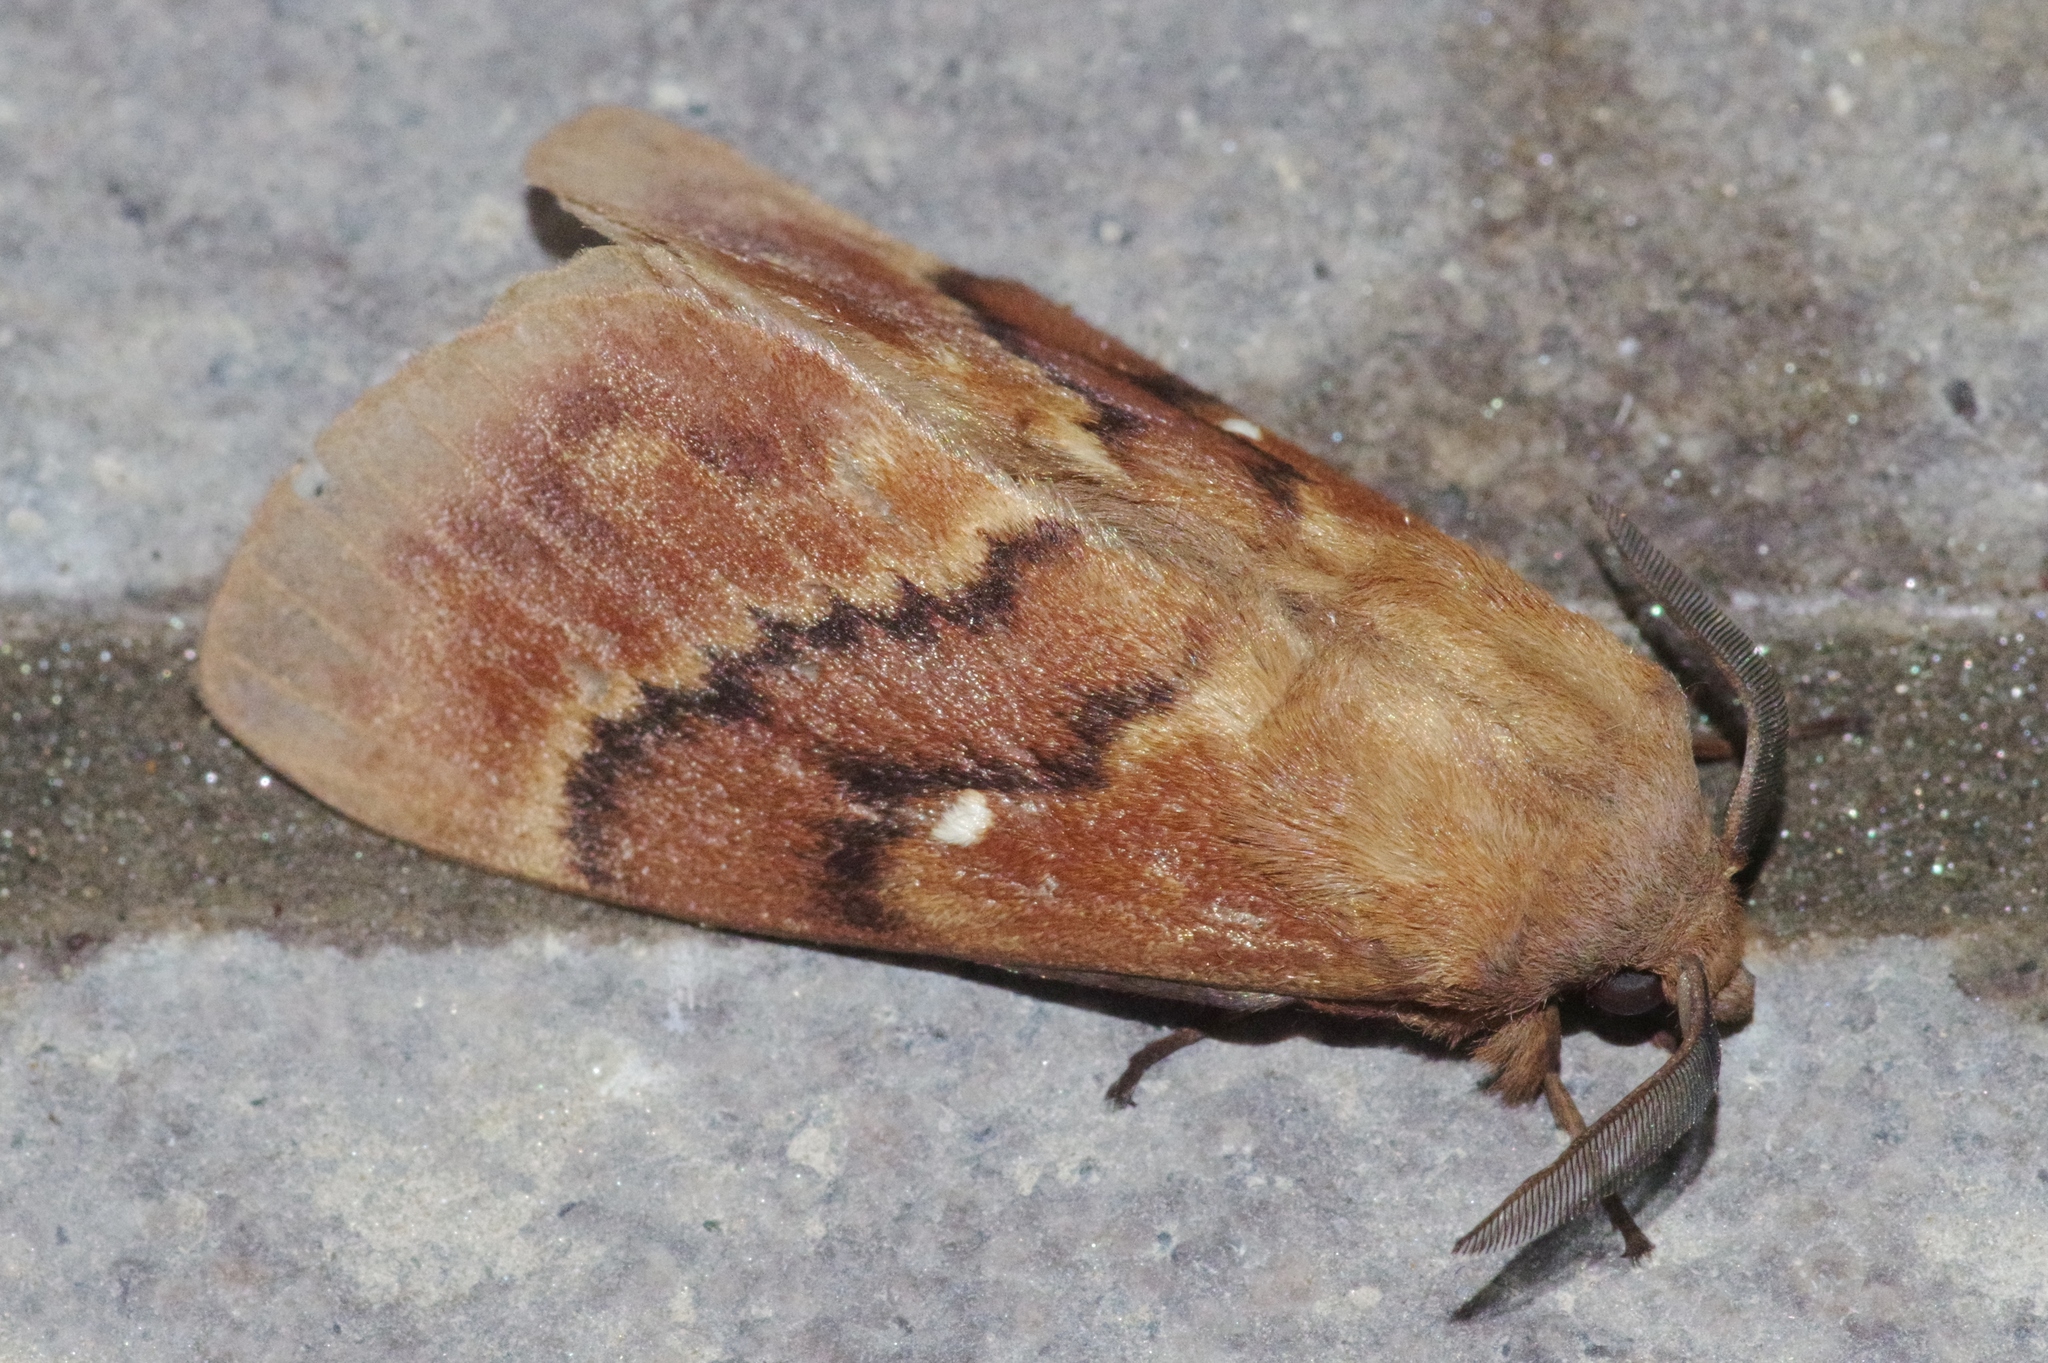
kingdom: Animalia
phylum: Arthropoda
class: Insecta
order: Lepidoptera
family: Lasiocampidae
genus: Dendrolimus
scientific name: Dendrolimus superans
